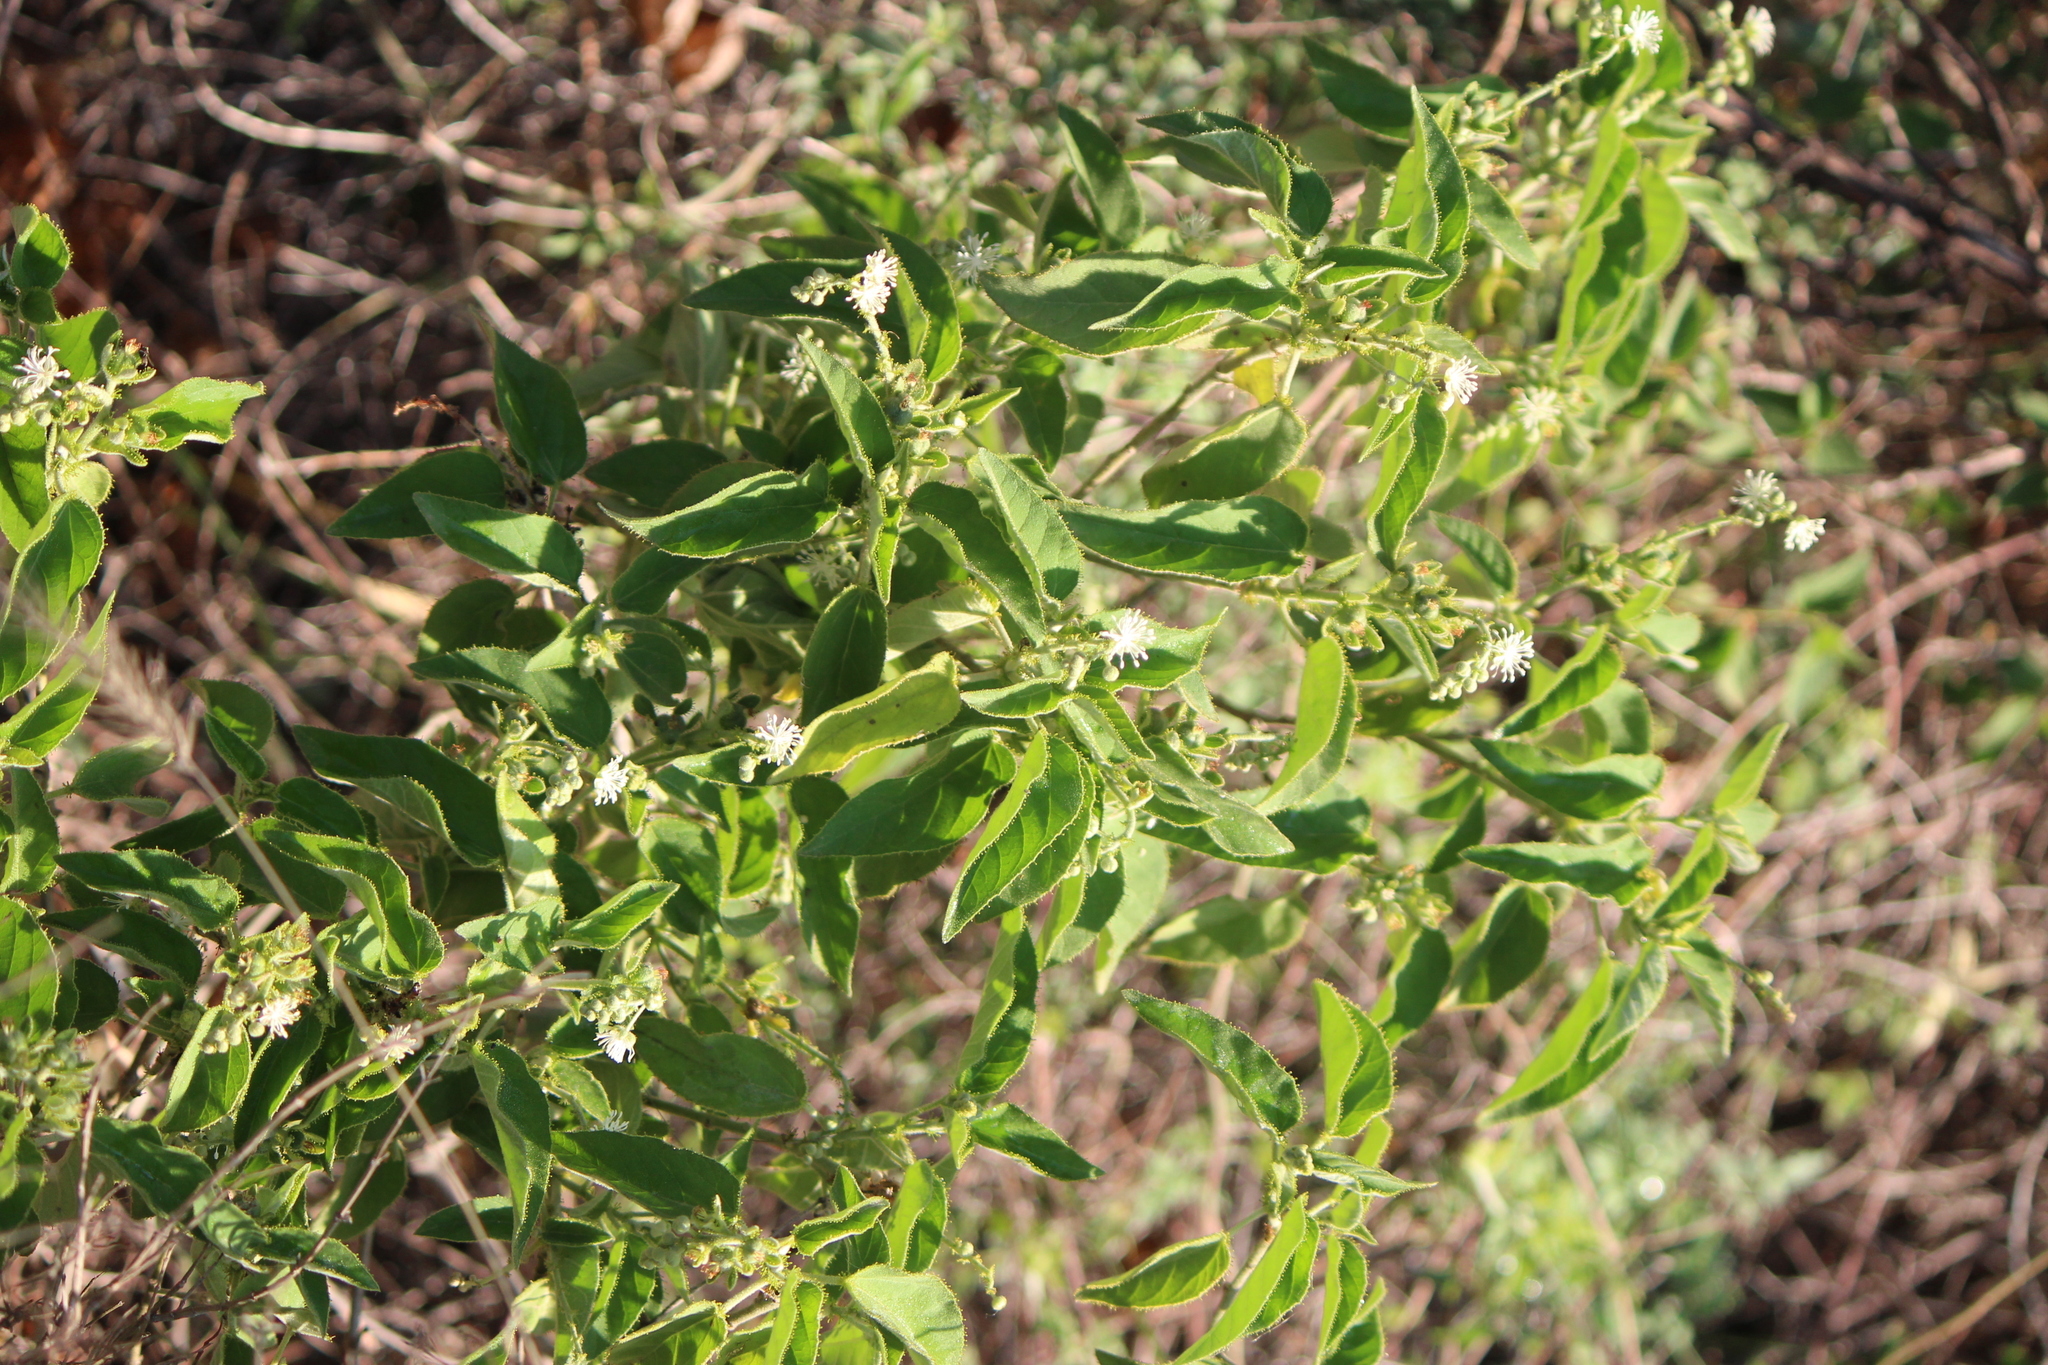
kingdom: Plantae
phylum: Tracheophyta
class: Magnoliopsida
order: Malpighiales
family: Euphorbiaceae
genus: Croton
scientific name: Croton ciliatoglandulifer
